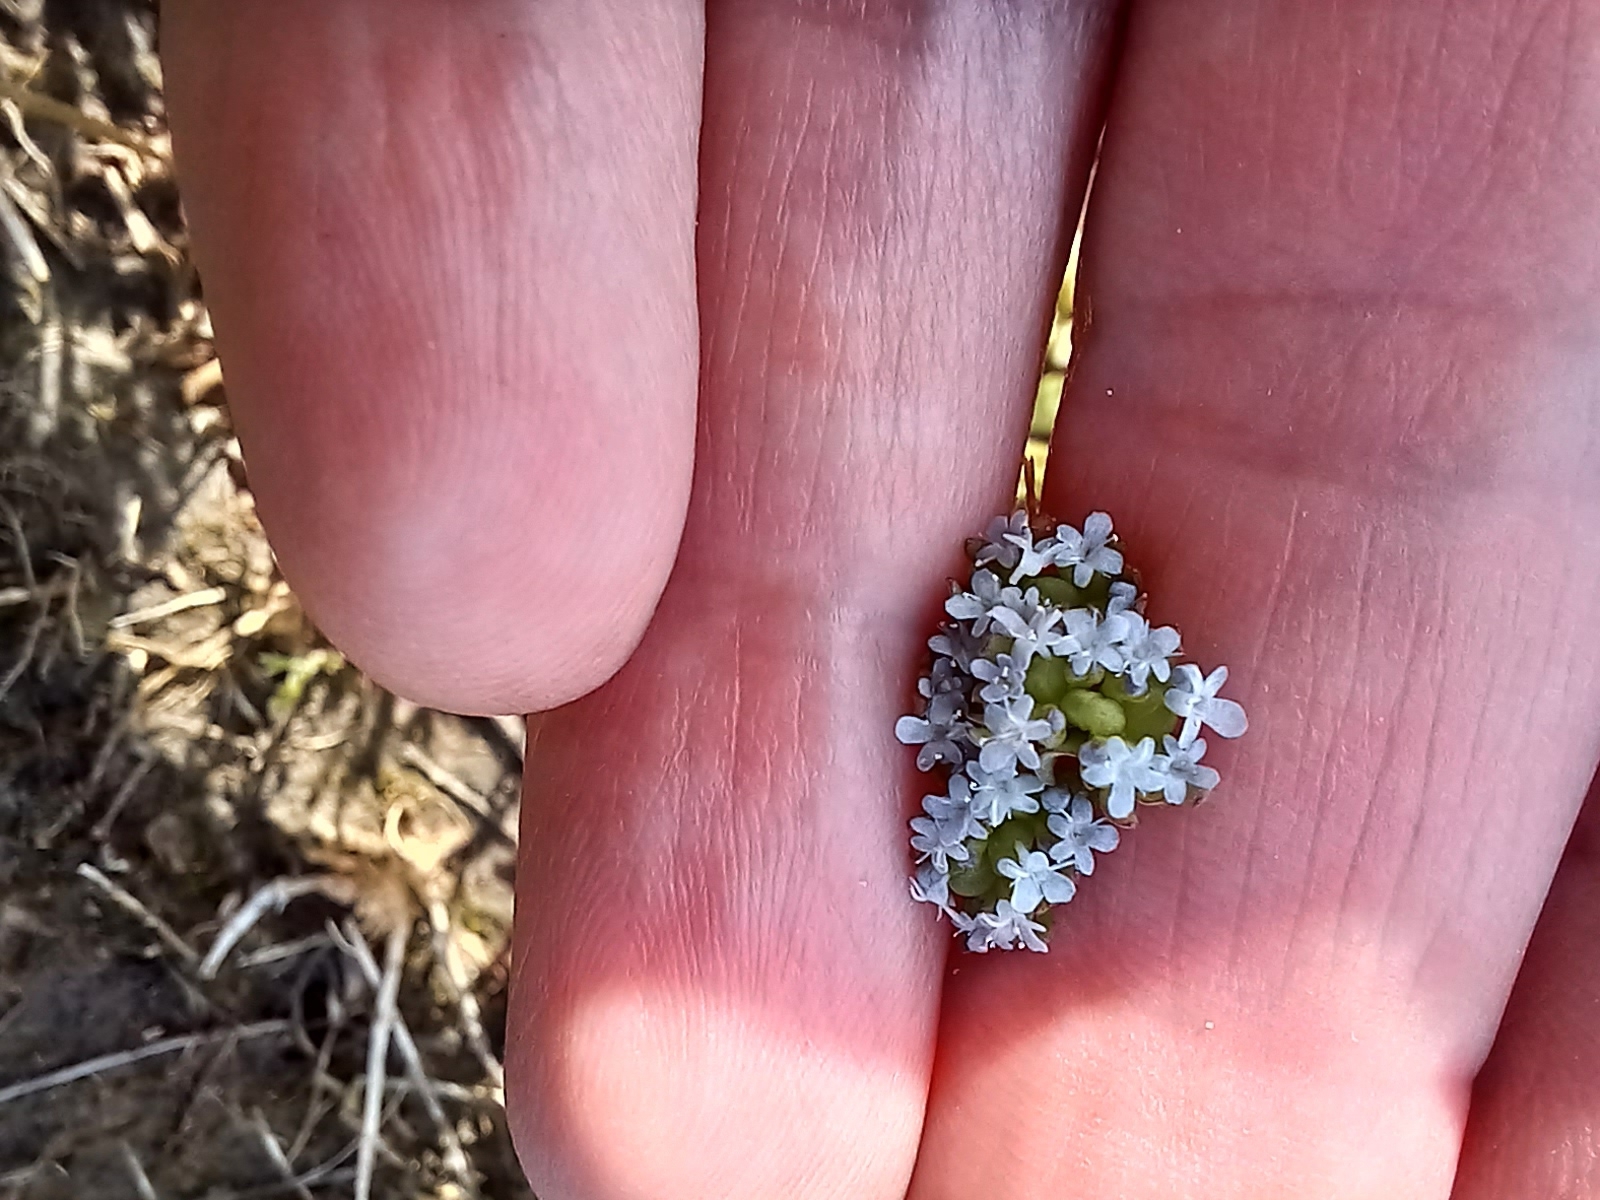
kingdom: Plantae
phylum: Tracheophyta
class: Magnoliopsida
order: Dipsacales
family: Caprifoliaceae
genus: Valeriana
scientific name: Valeriana tuberosa
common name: Tuberous valerian
